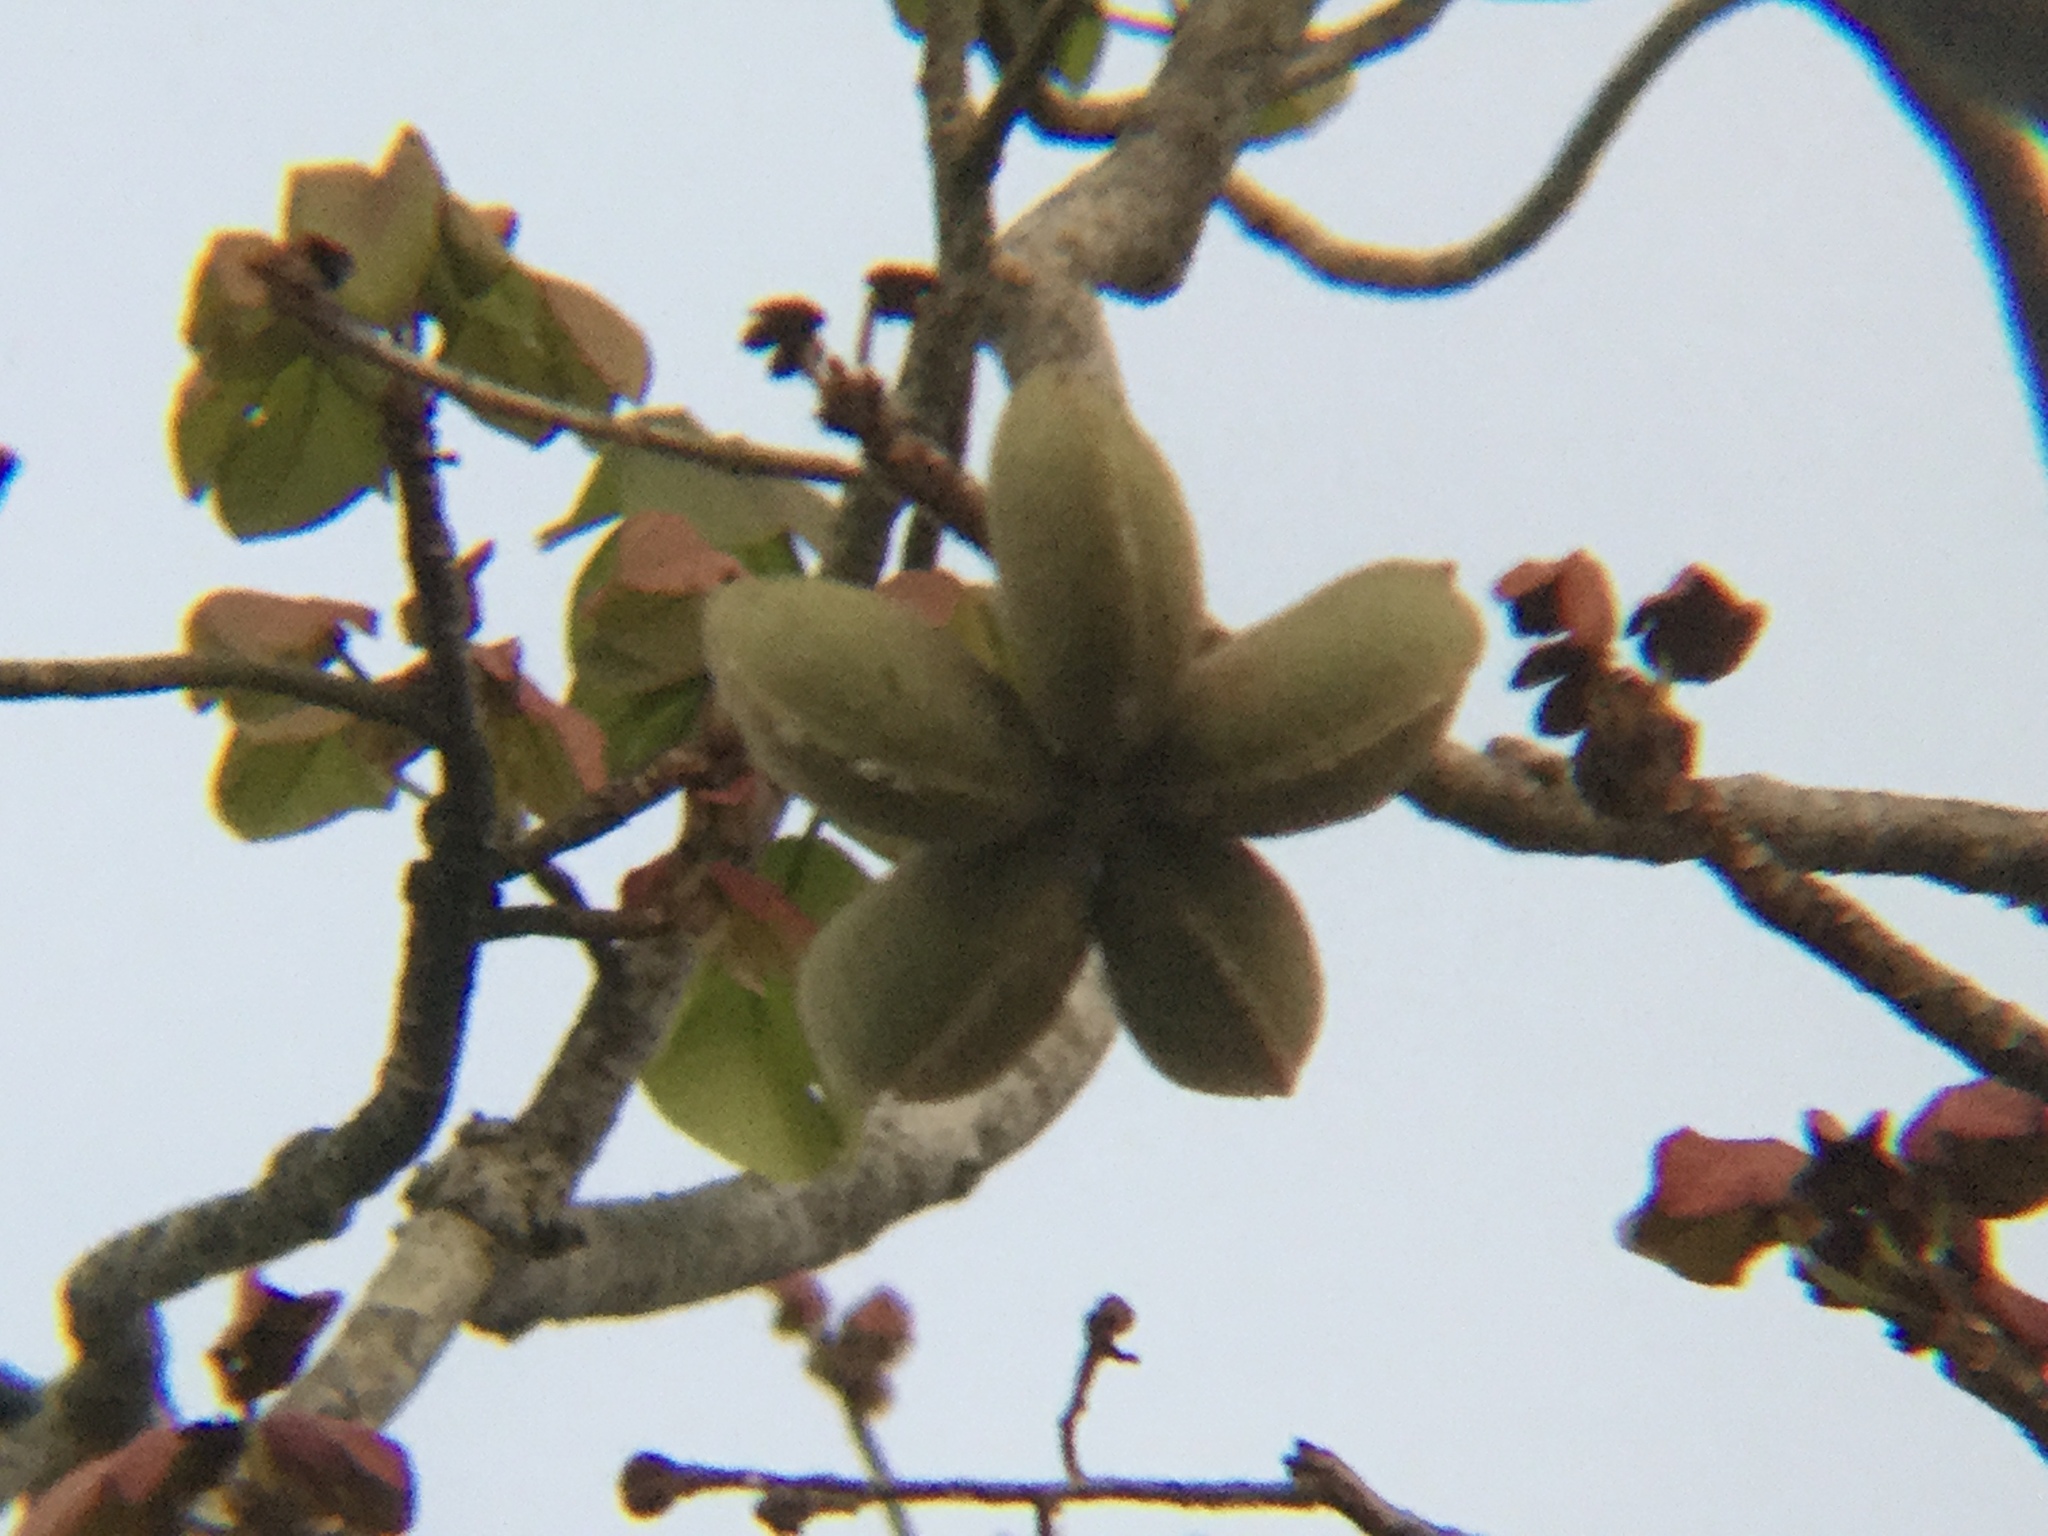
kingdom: Plantae
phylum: Tracheophyta
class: Magnoliopsida
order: Malvales
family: Malvaceae
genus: Sterculia
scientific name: Sterculia apetala
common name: Panama tree
